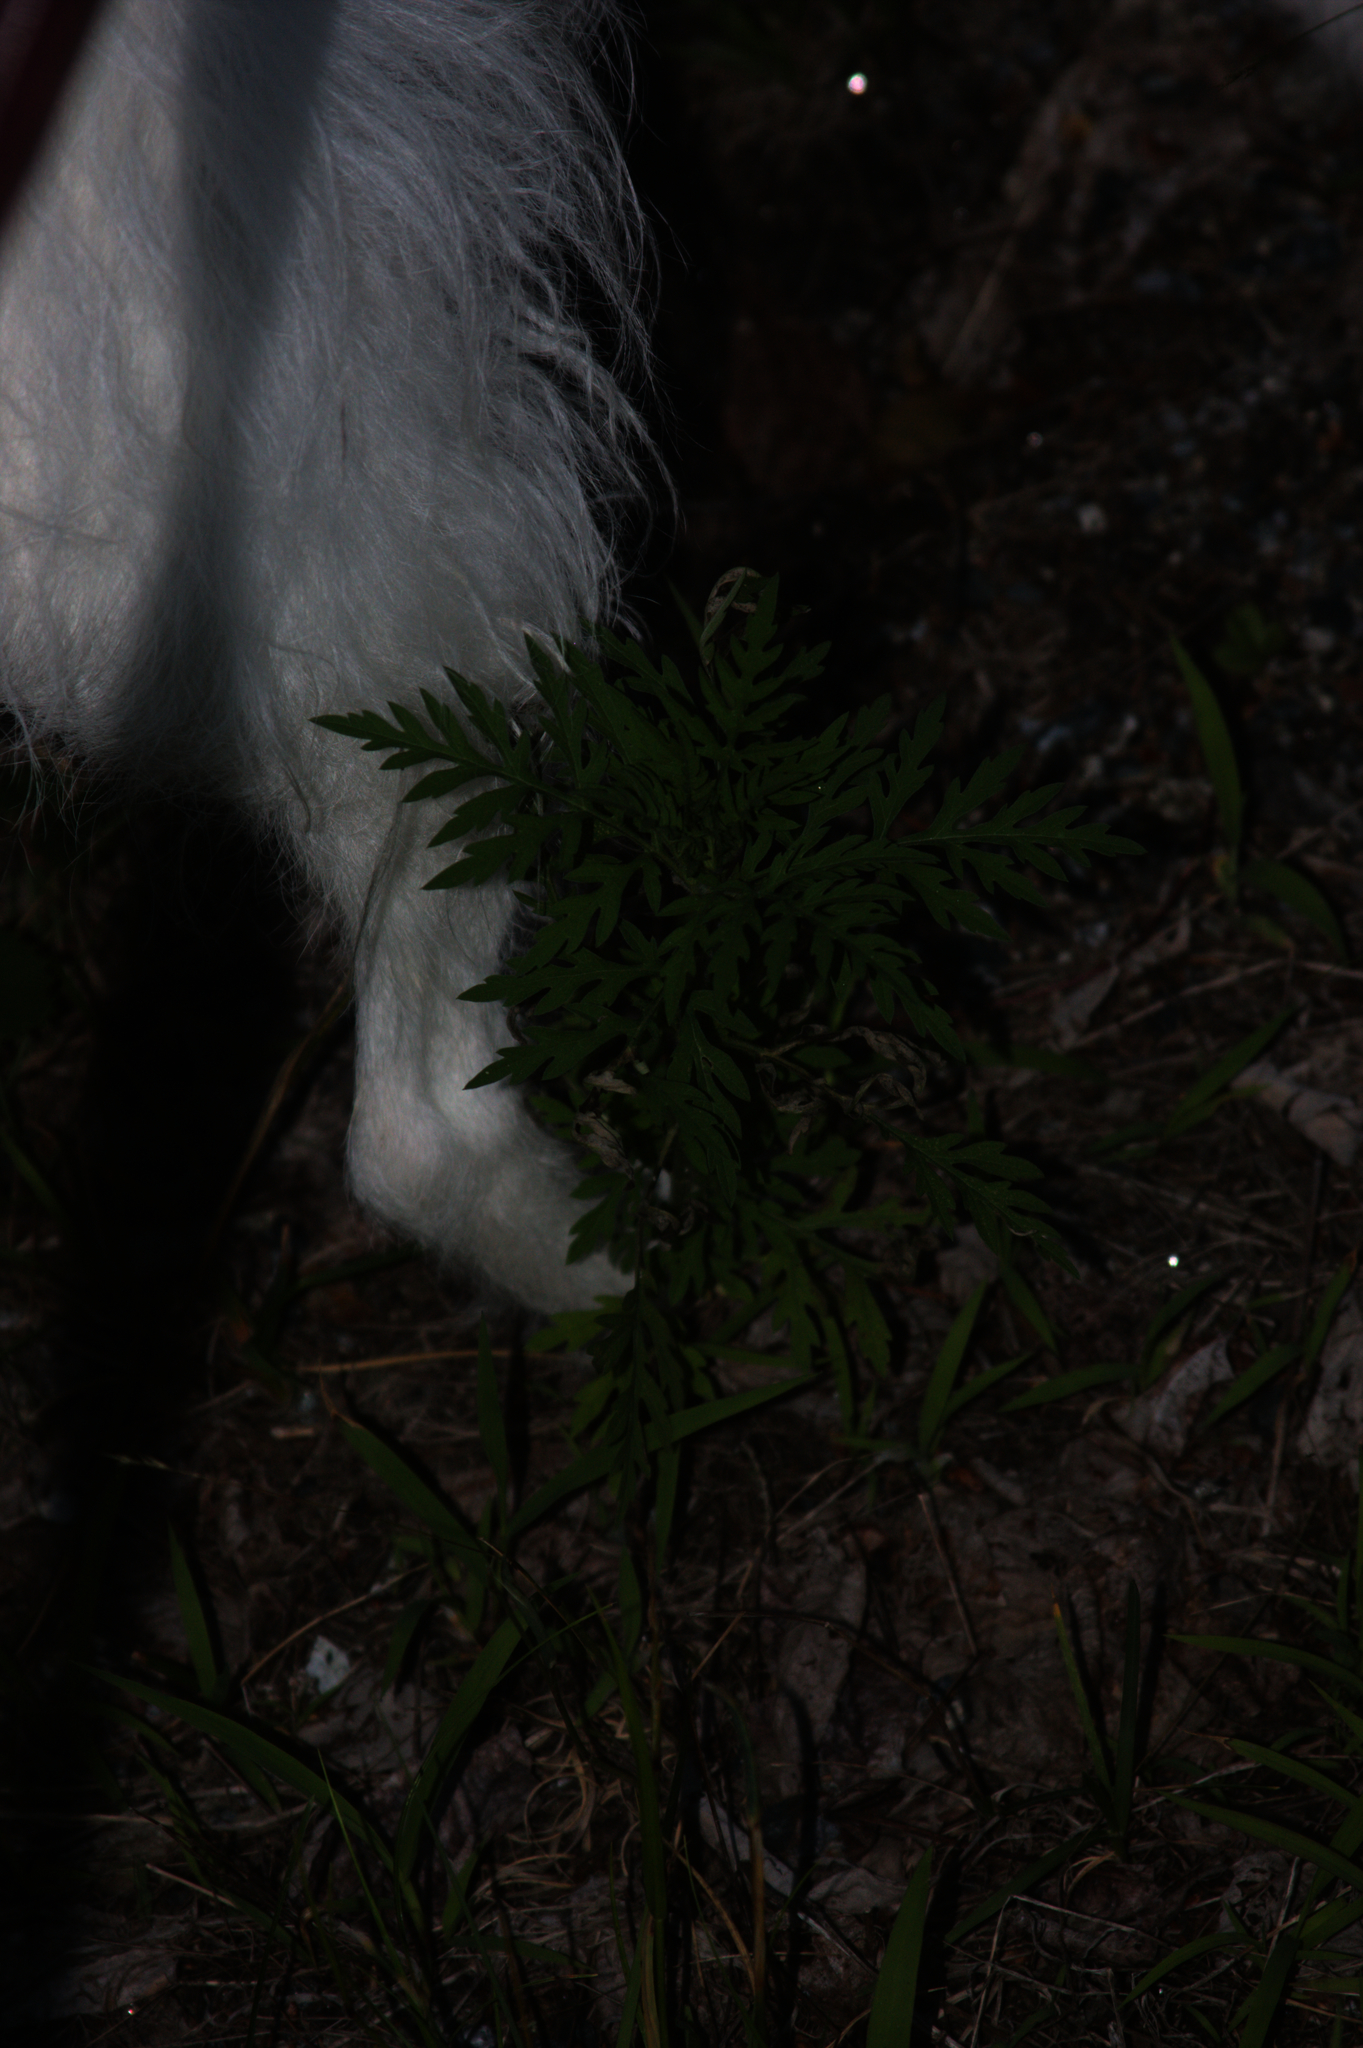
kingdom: Plantae
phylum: Tracheophyta
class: Magnoliopsida
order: Asterales
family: Asteraceae
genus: Ambrosia
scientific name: Ambrosia artemisiifolia
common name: Annual ragweed
